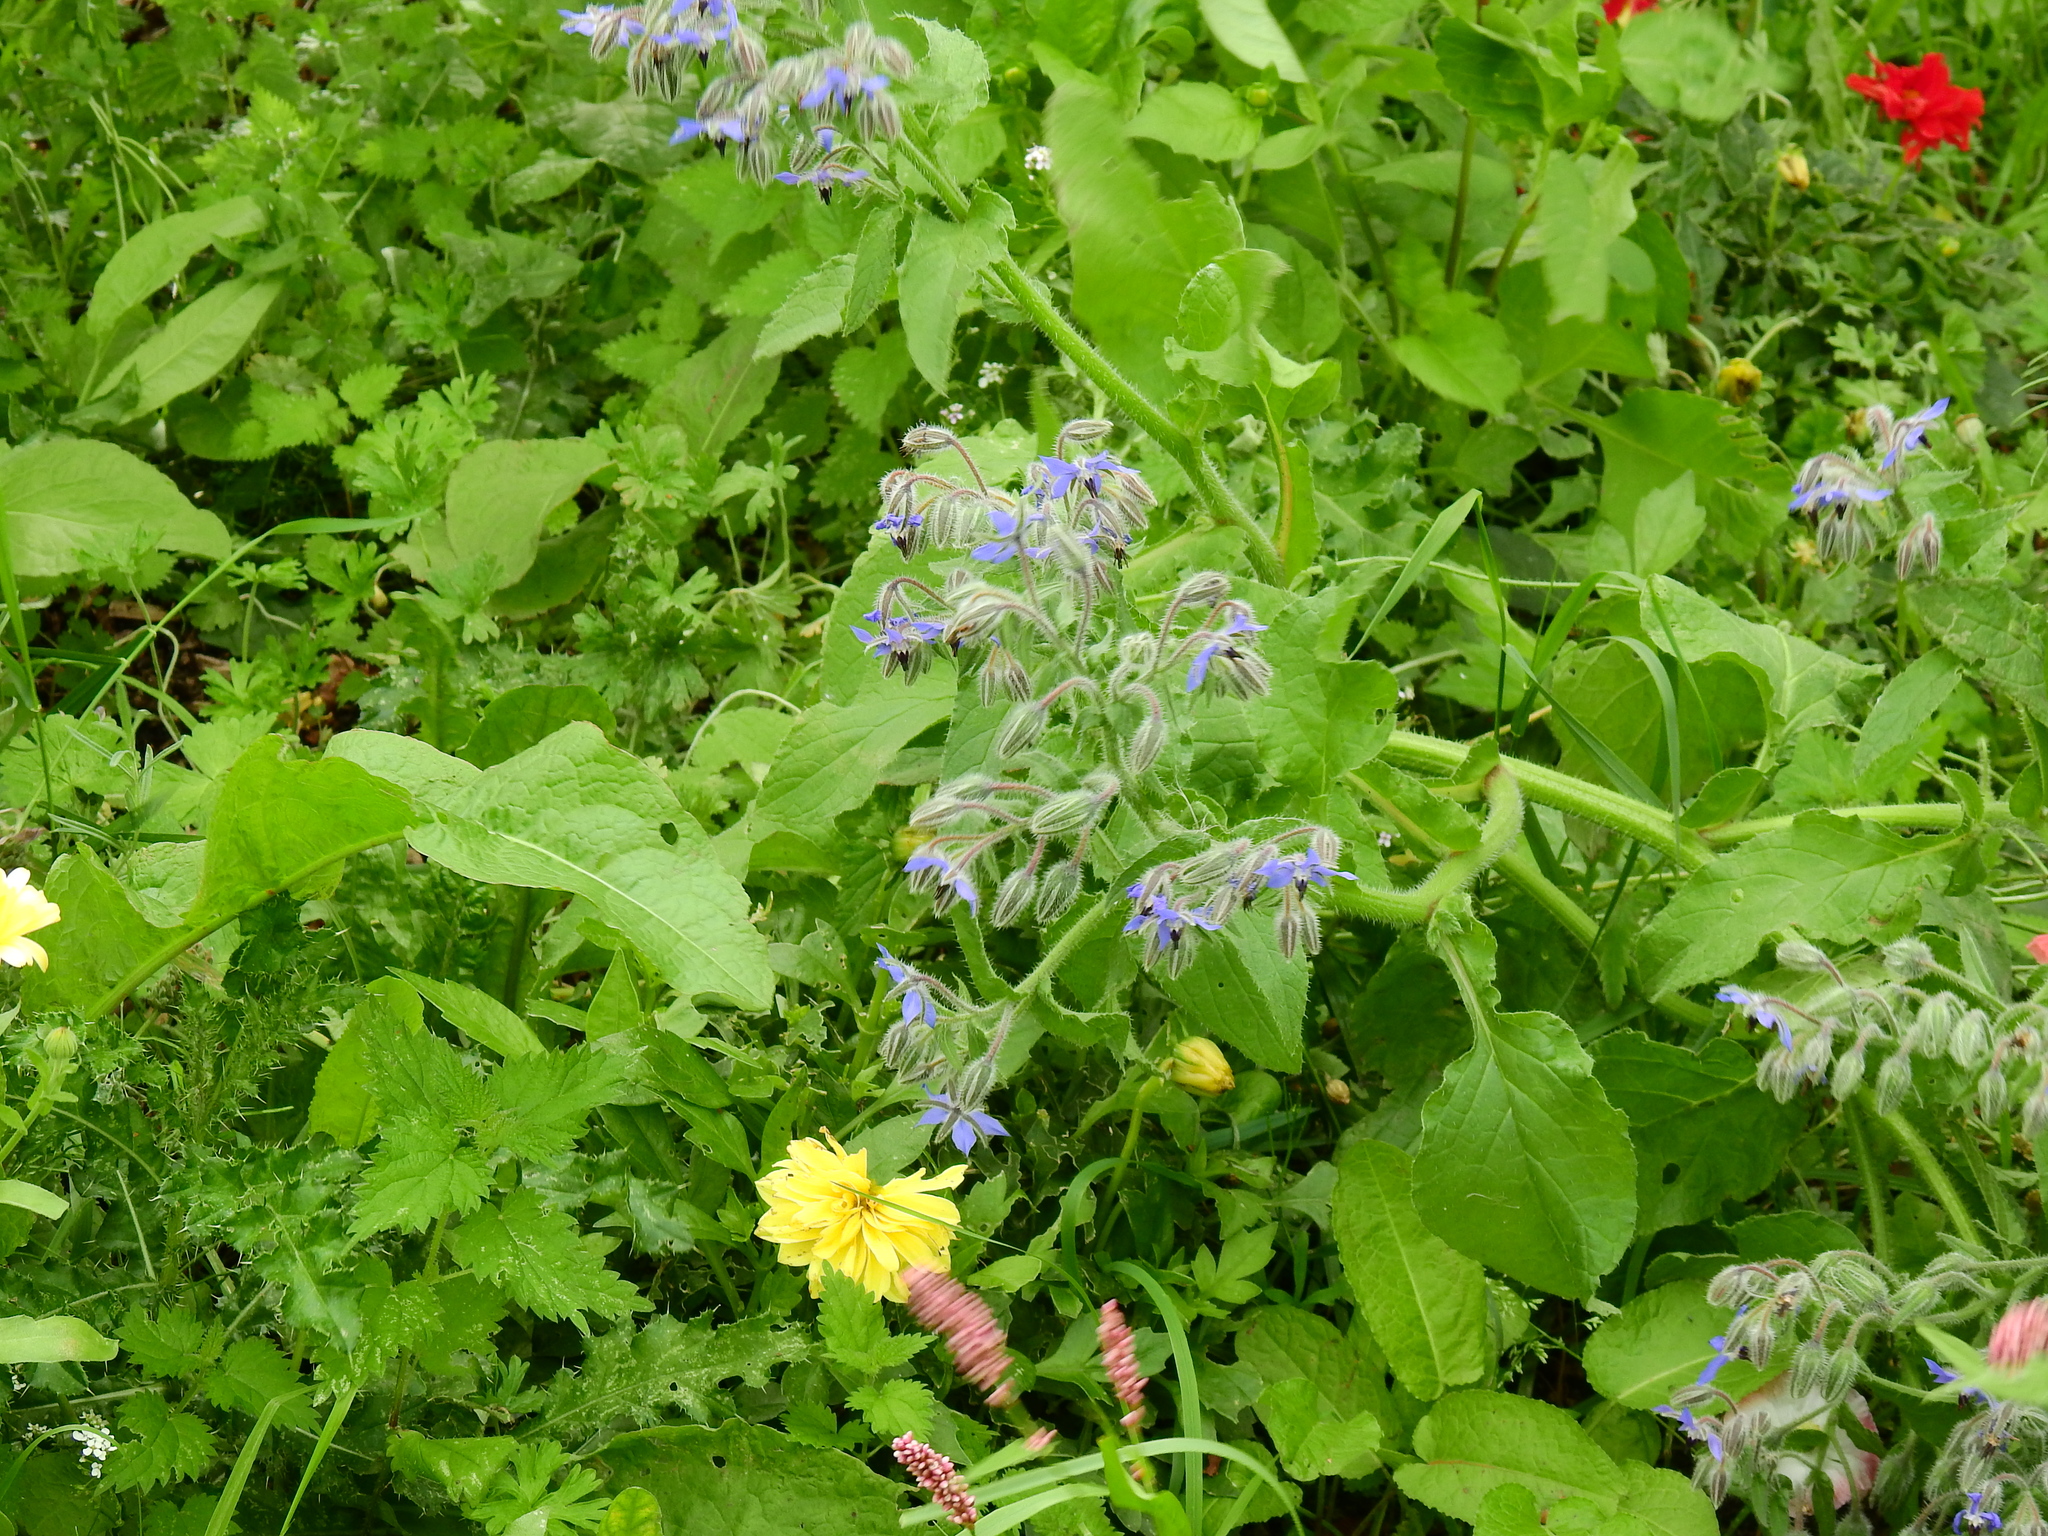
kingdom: Plantae
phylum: Tracheophyta
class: Magnoliopsida
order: Boraginales
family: Boraginaceae
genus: Borago
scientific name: Borago officinalis
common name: Borage
